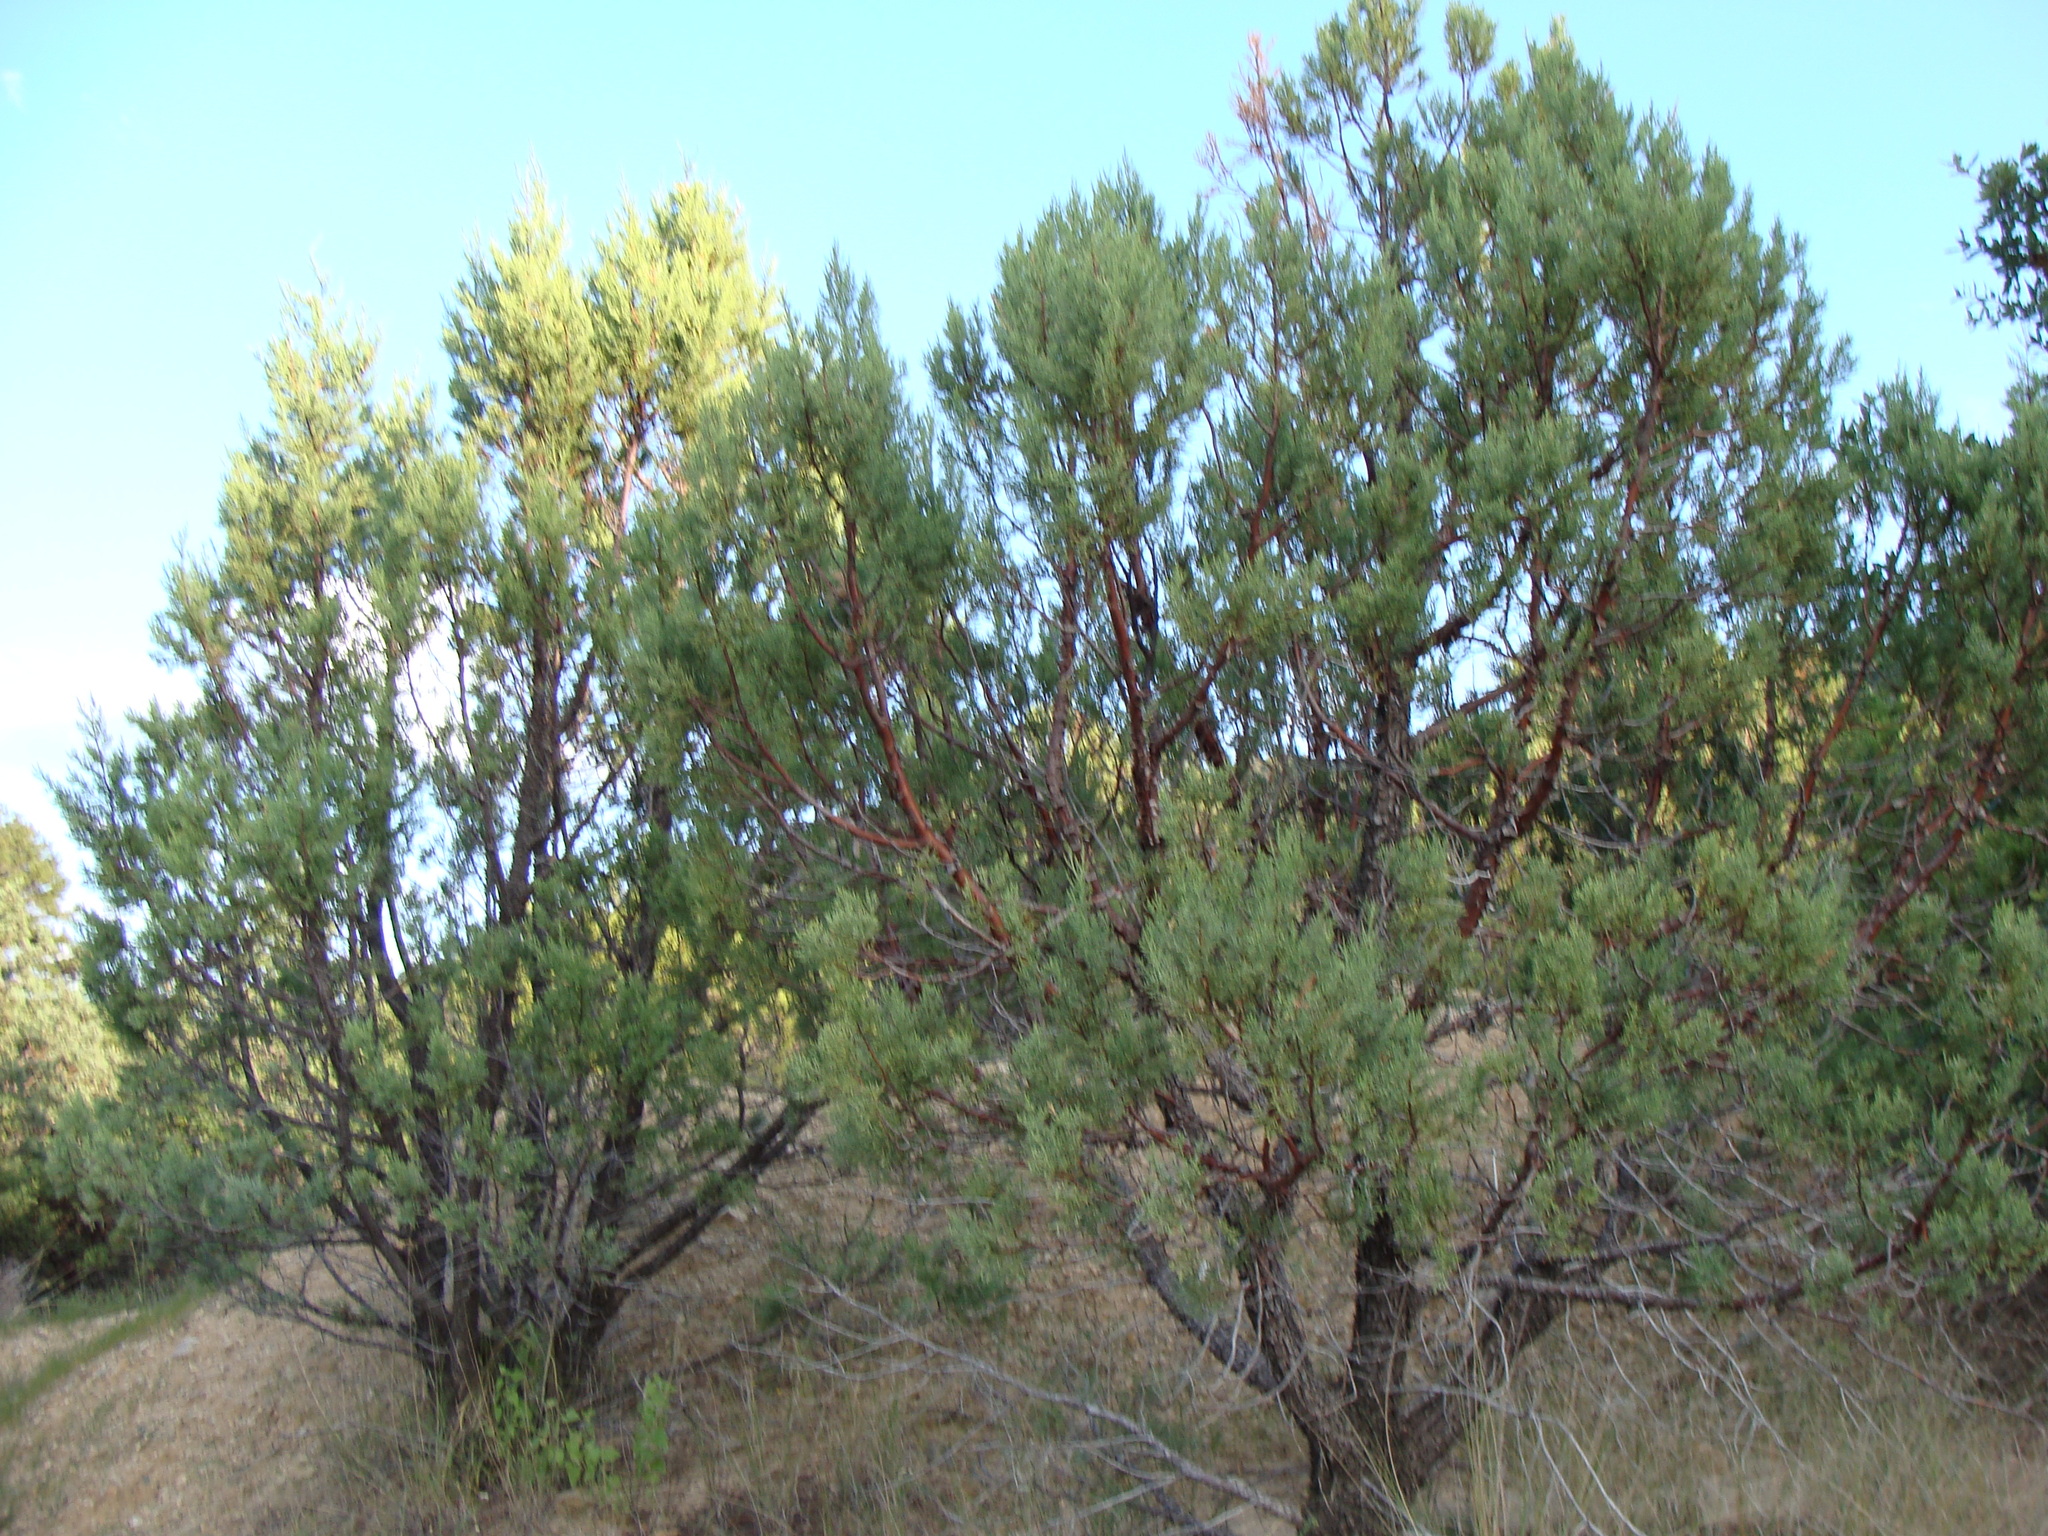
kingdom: Plantae
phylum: Tracheophyta
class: Pinopsida
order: Pinales
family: Cupressaceae
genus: Juniperus
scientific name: Juniperus deppeana
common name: Alligator juniper
